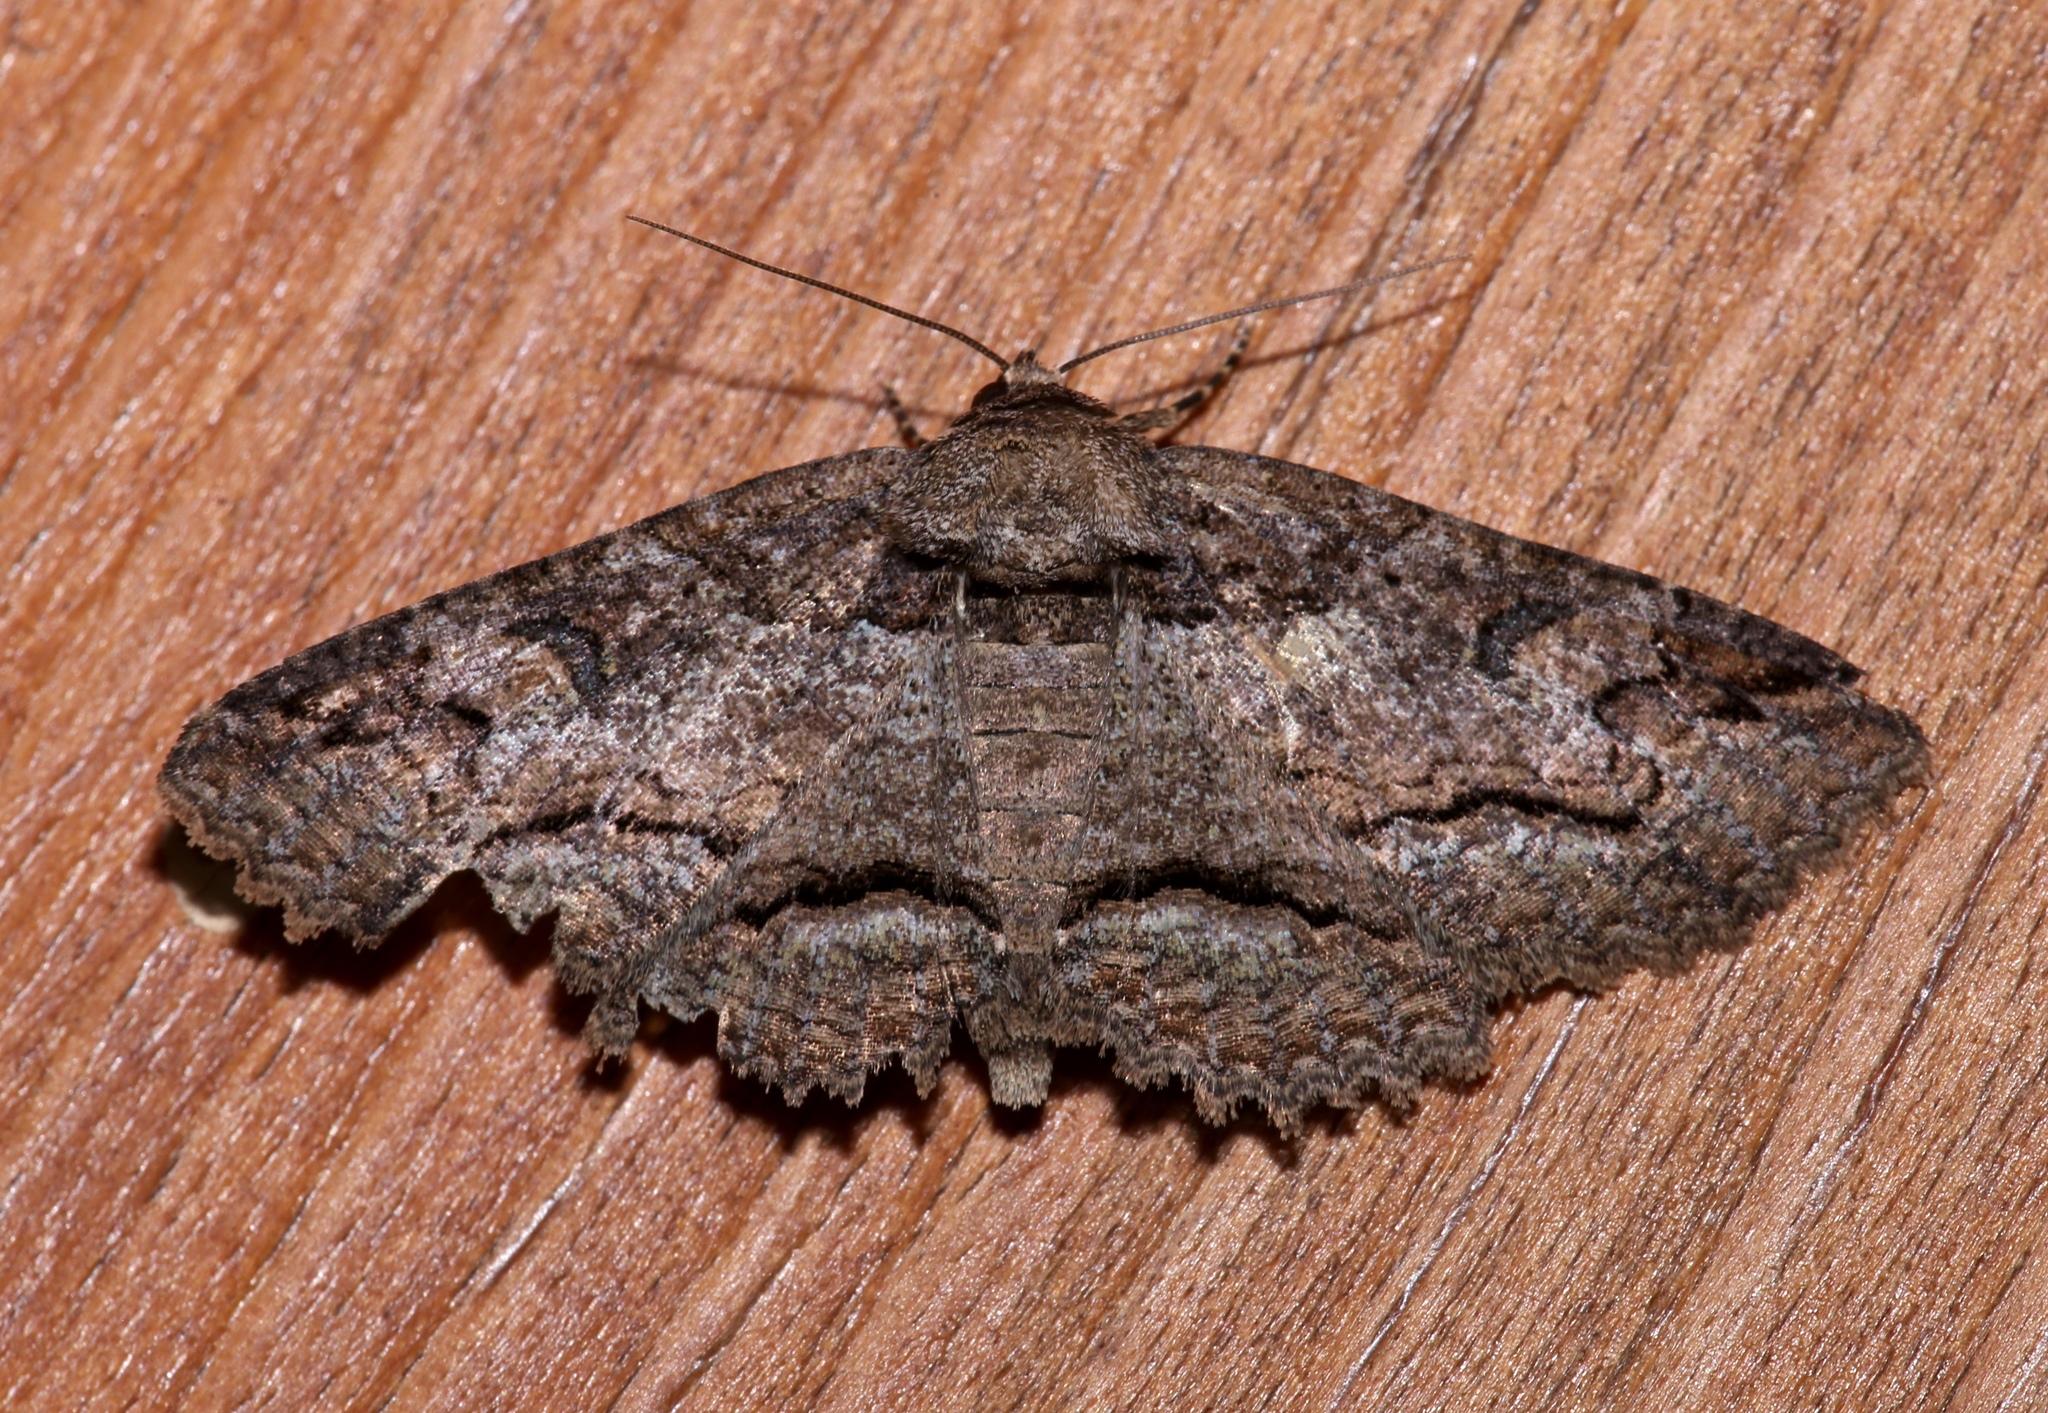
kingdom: Animalia
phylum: Arthropoda
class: Insecta
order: Lepidoptera
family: Erebidae
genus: Zale
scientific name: Zale galbanata
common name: Maple zale
